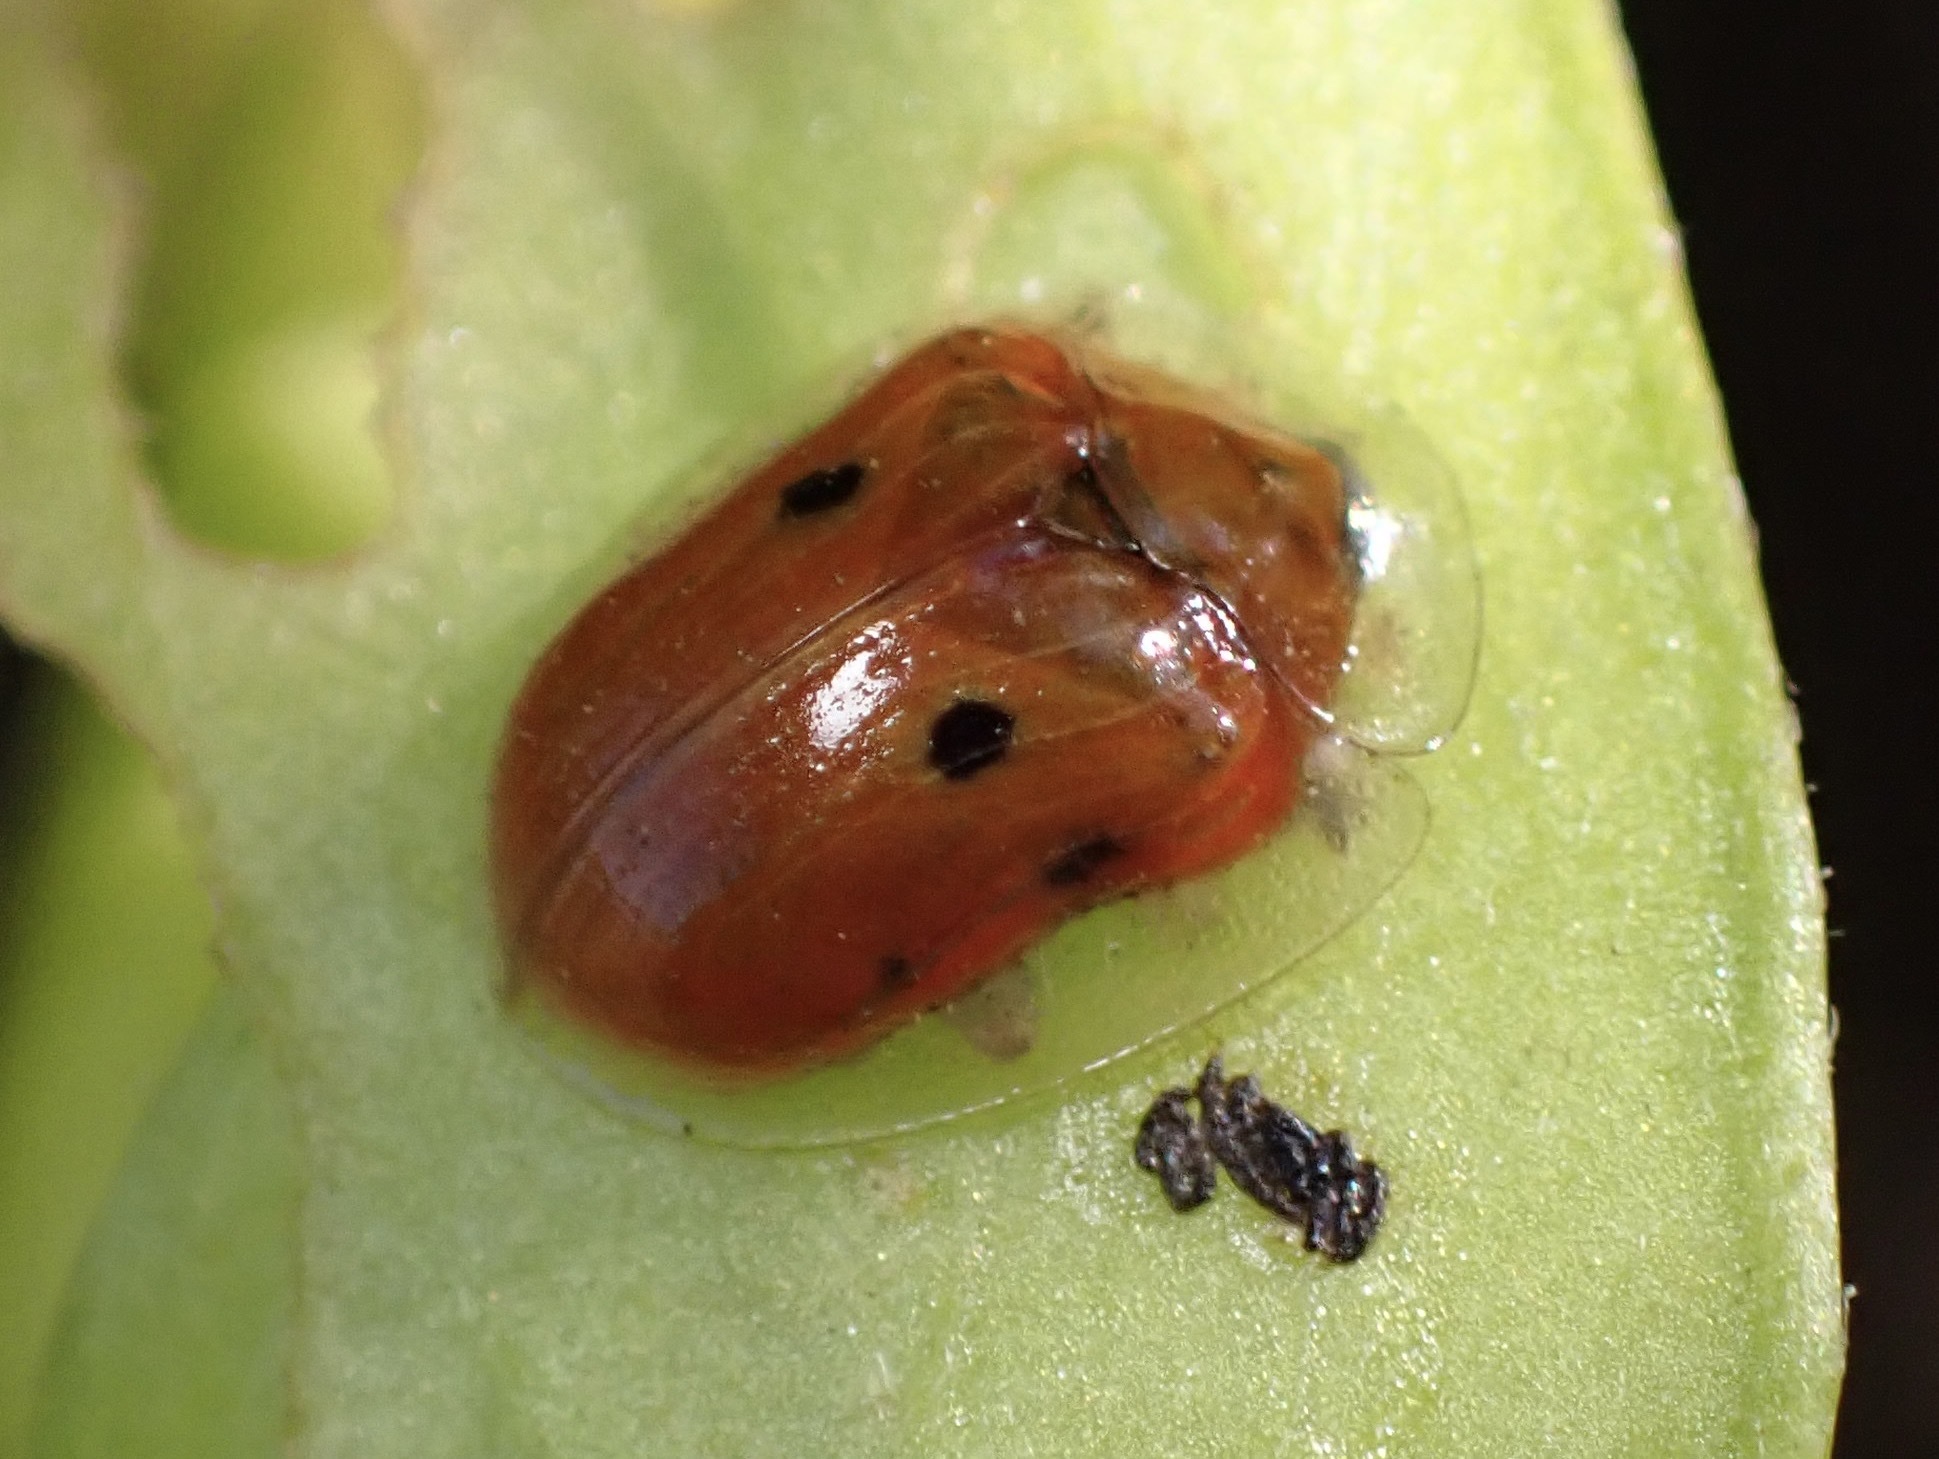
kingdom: Animalia
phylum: Arthropoda
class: Insecta
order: Coleoptera
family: Chrysomelidae
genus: Charidotella
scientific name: Charidotella sexpunctata
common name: Golden tortoise beetle
